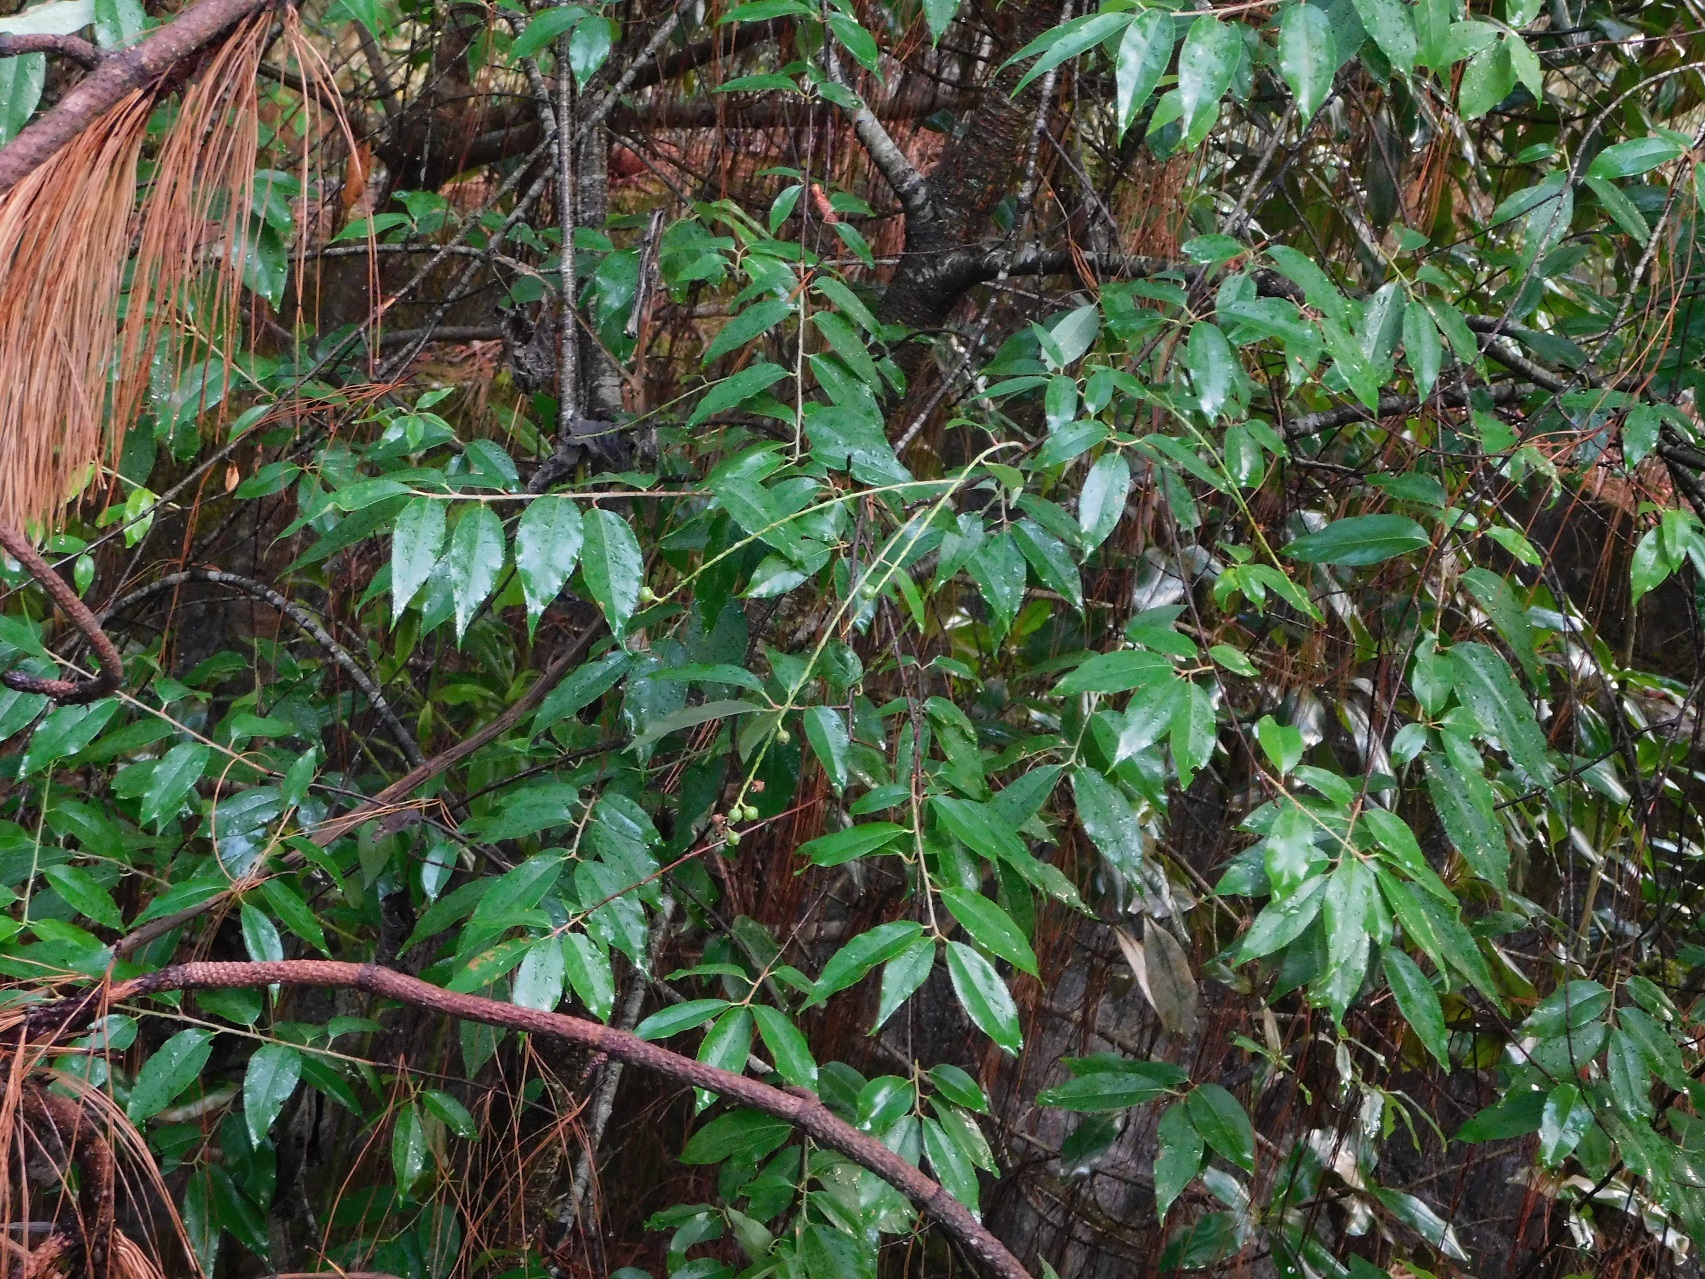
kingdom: Plantae
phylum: Tracheophyta
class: Magnoliopsida
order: Rosales
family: Rosaceae
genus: Prunus
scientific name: Prunus serotina
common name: Black cherry
